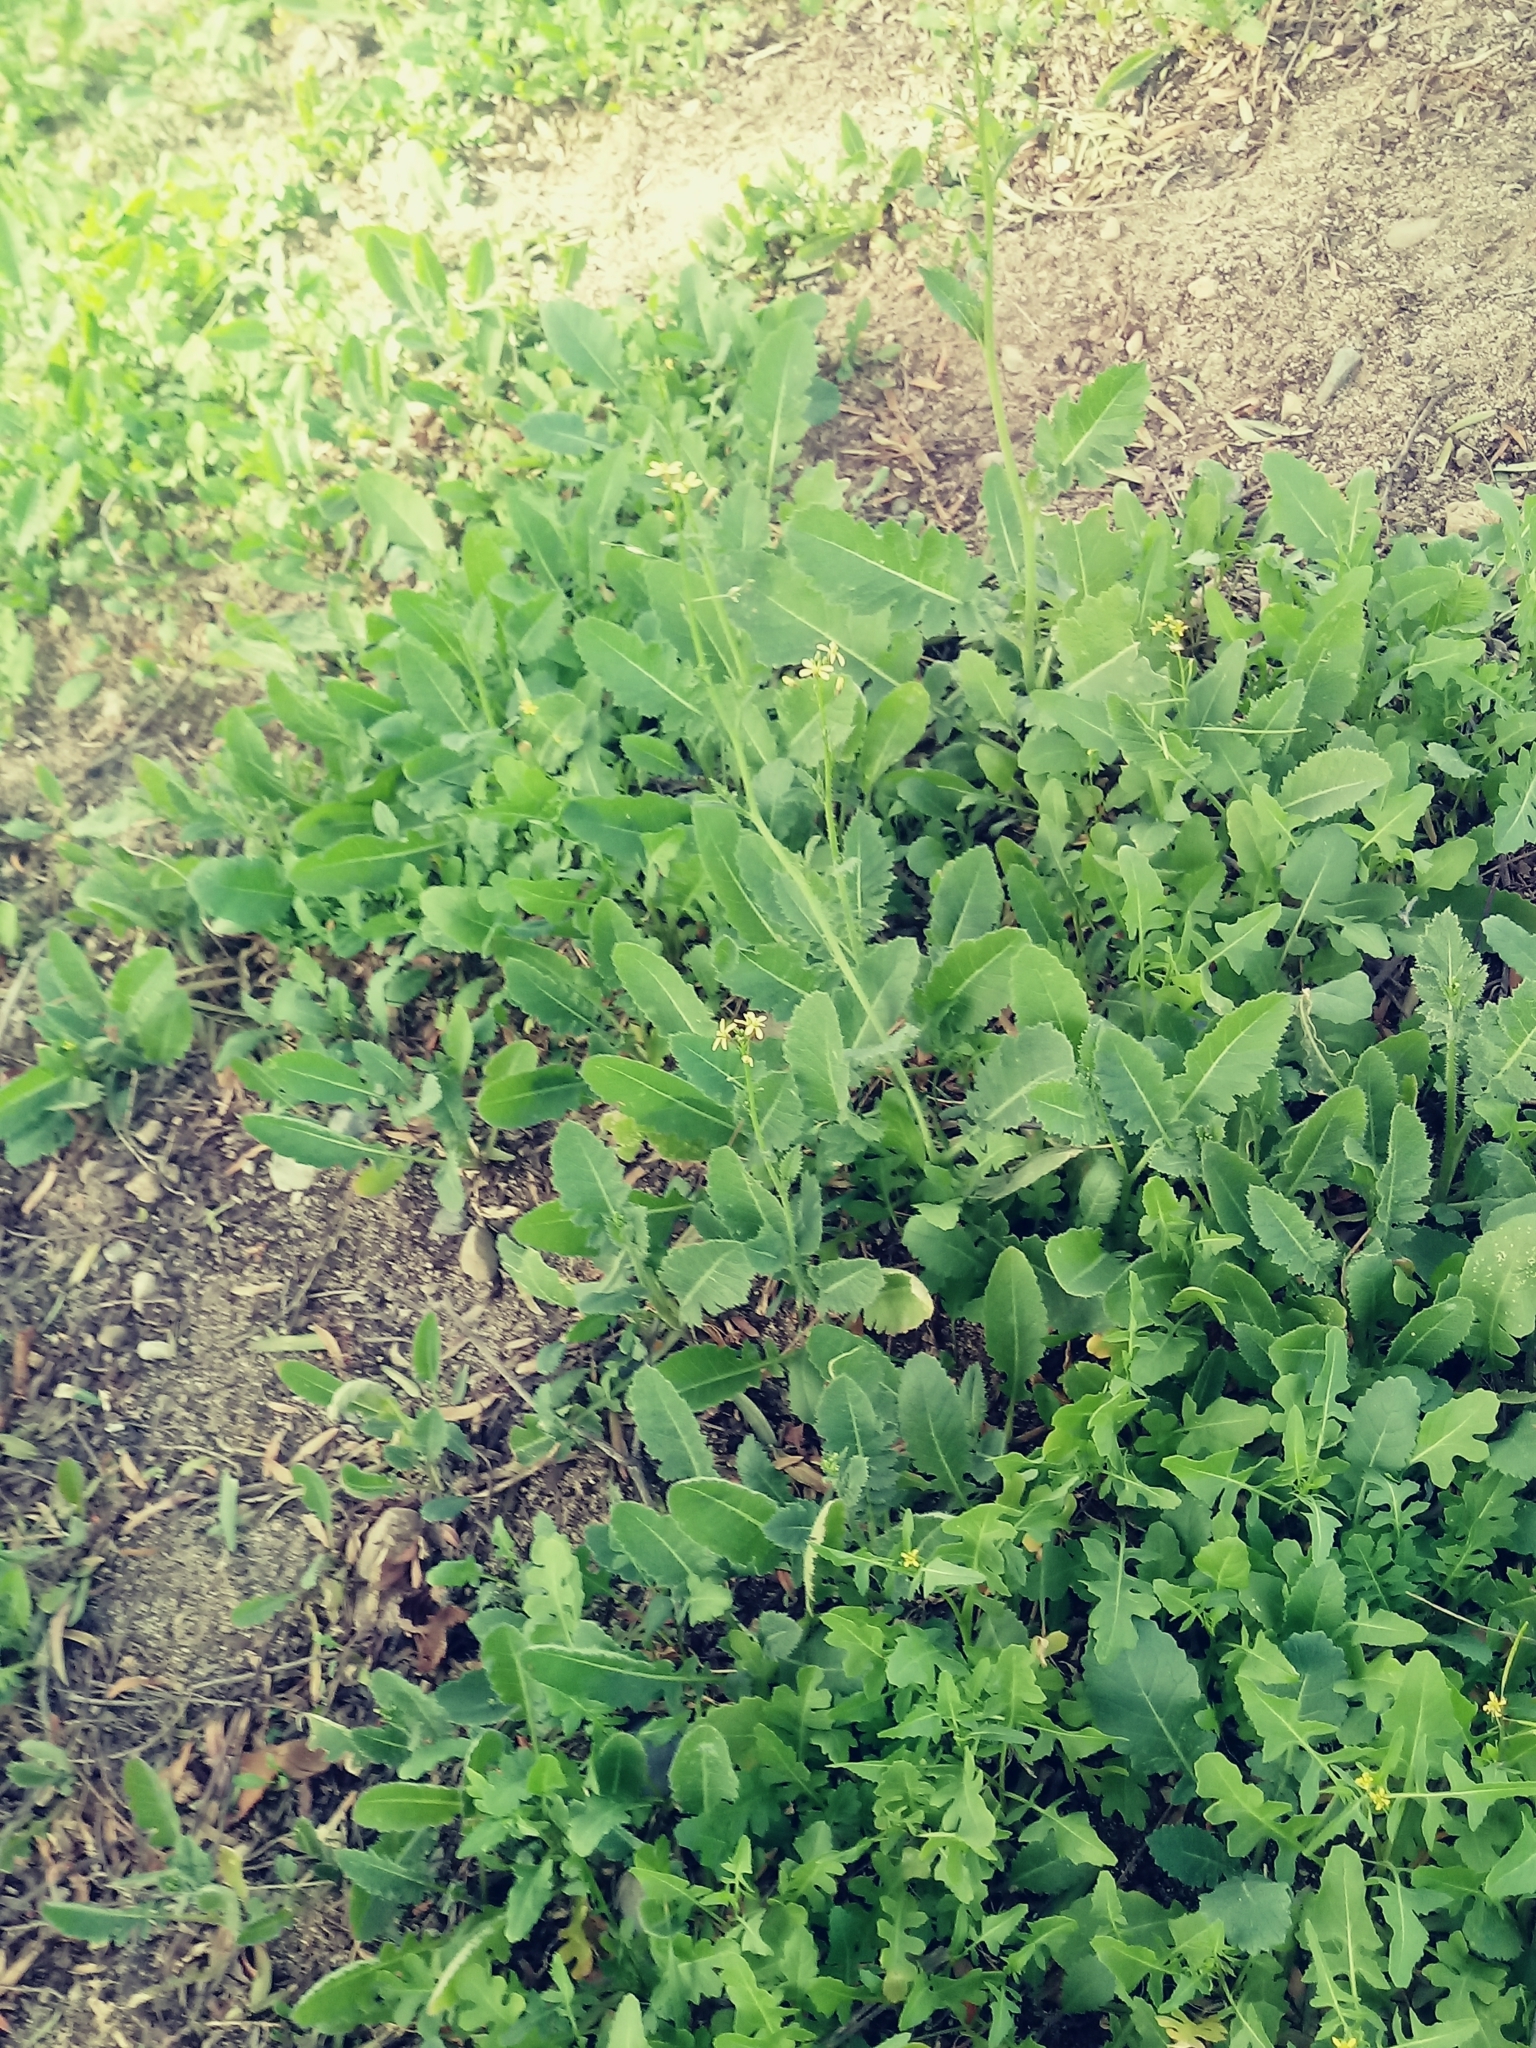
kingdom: Plantae
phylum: Tracheophyta
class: Magnoliopsida
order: Brassicales
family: Brassicaceae
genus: Brassica
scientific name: Brassica tournefortii
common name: Pale cabbage
